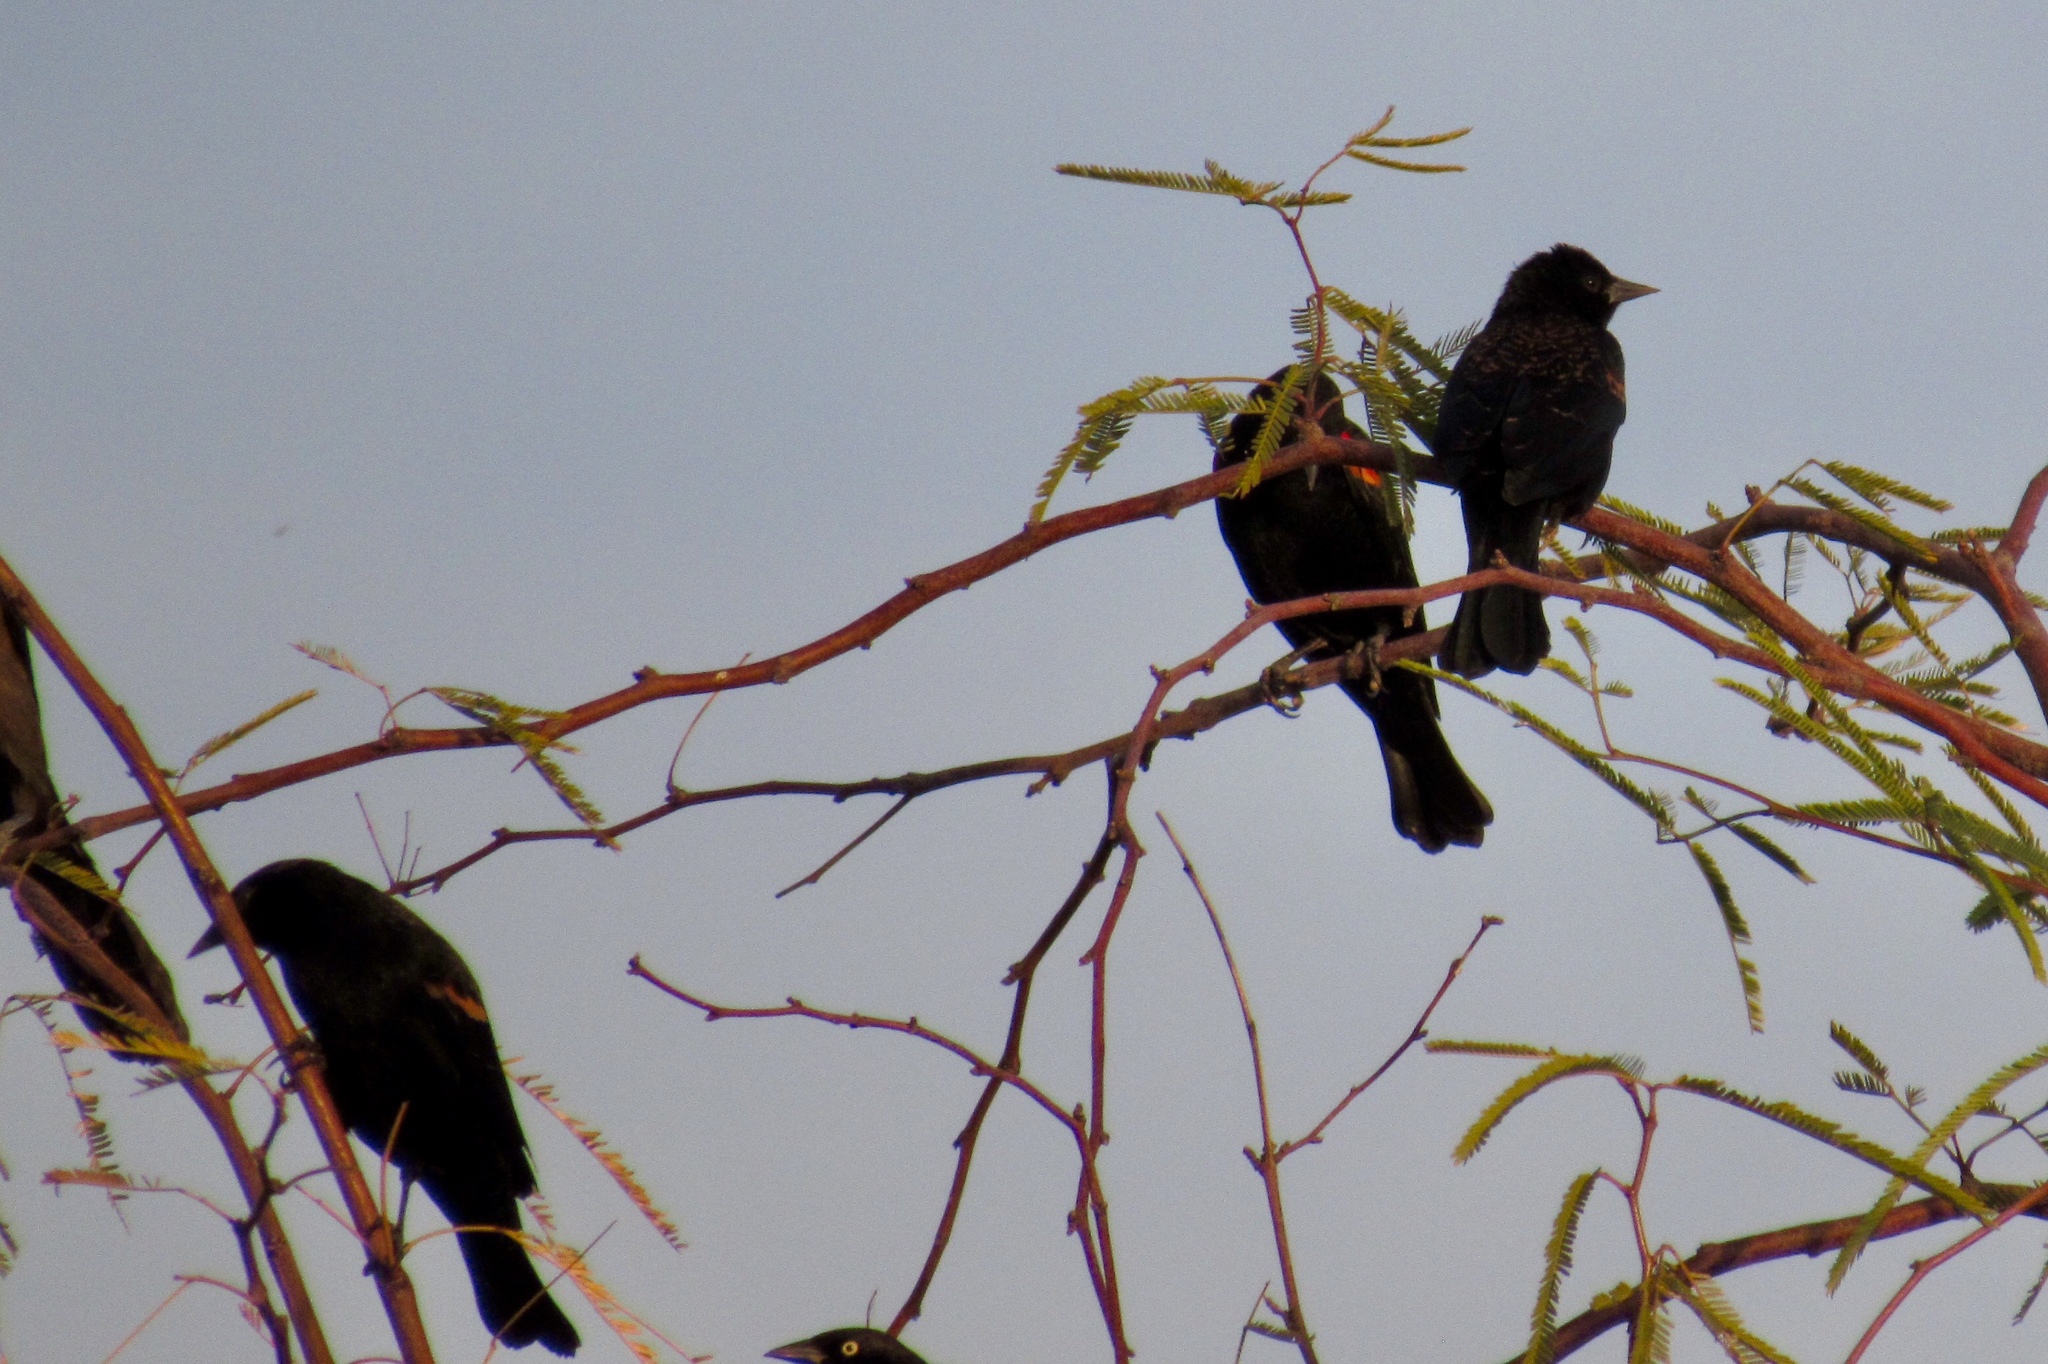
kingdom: Animalia
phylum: Chordata
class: Aves
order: Passeriformes
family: Icteridae
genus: Agelaius
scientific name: Agelaius phoeniceus
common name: Red-winged blackbird
